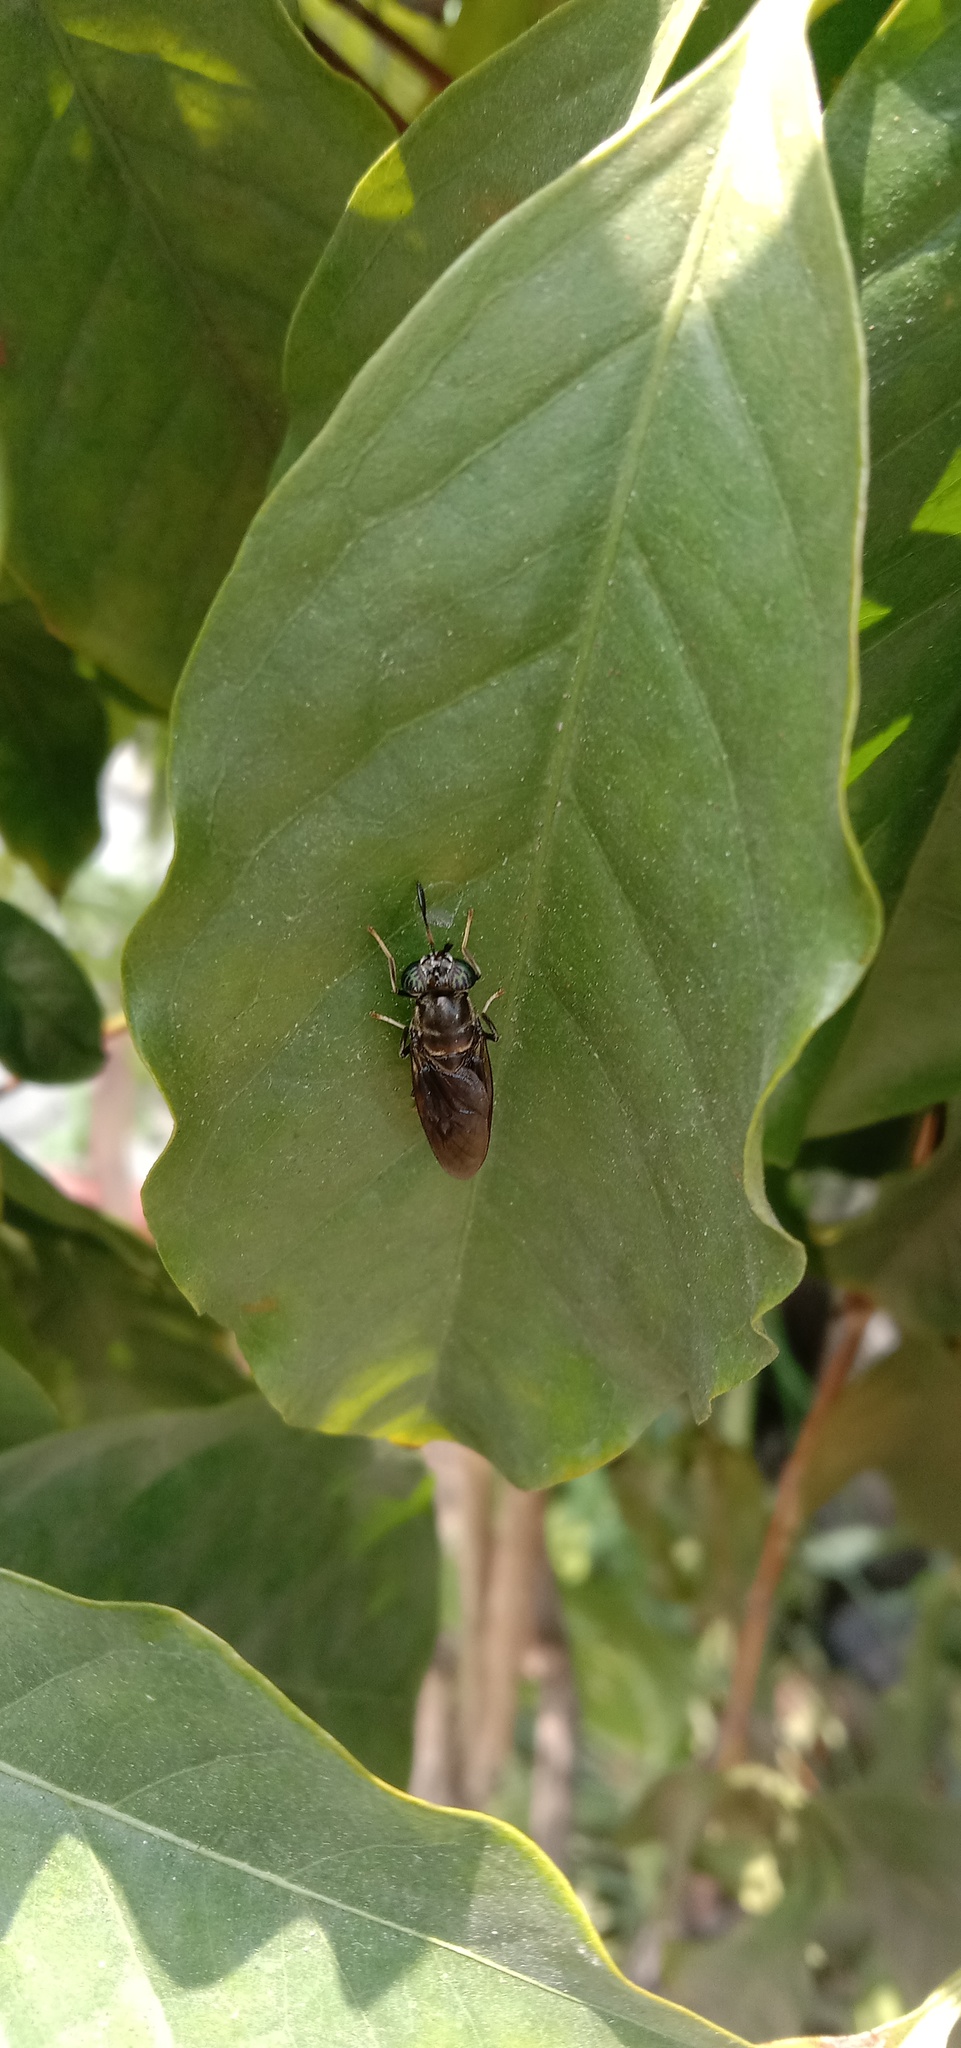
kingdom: Animalia
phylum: Arthropoda
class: Insecta
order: Diptera
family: Stratiomyidae
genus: Hermetia
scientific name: Hermetia illucens
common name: Black soldier fly
